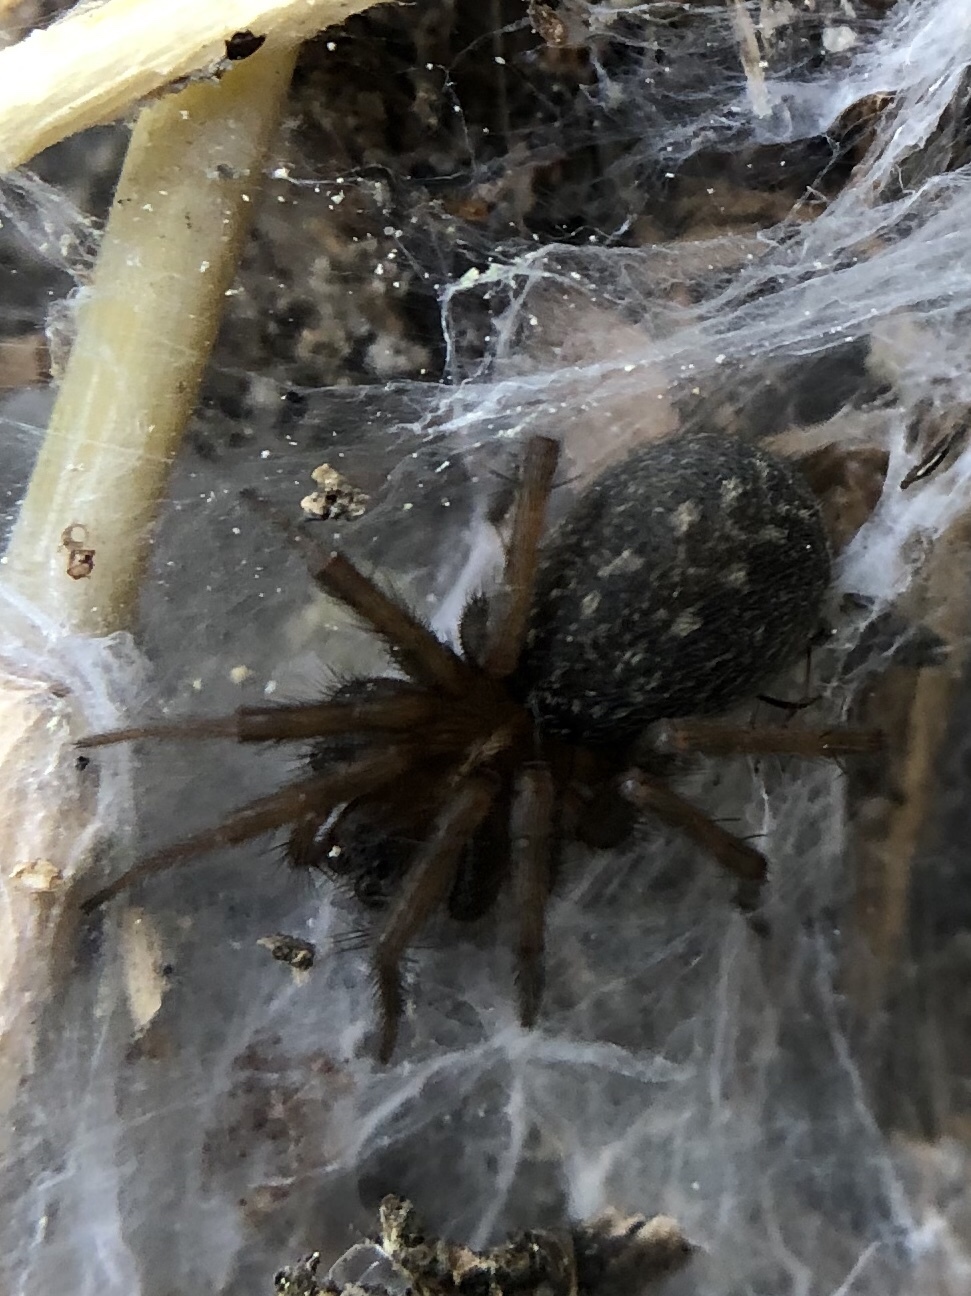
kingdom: Animalia
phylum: Arthropoda
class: Arachnida
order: Araneae
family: Agelenidae
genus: Lycosoides
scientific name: Lycosoides coarctata
